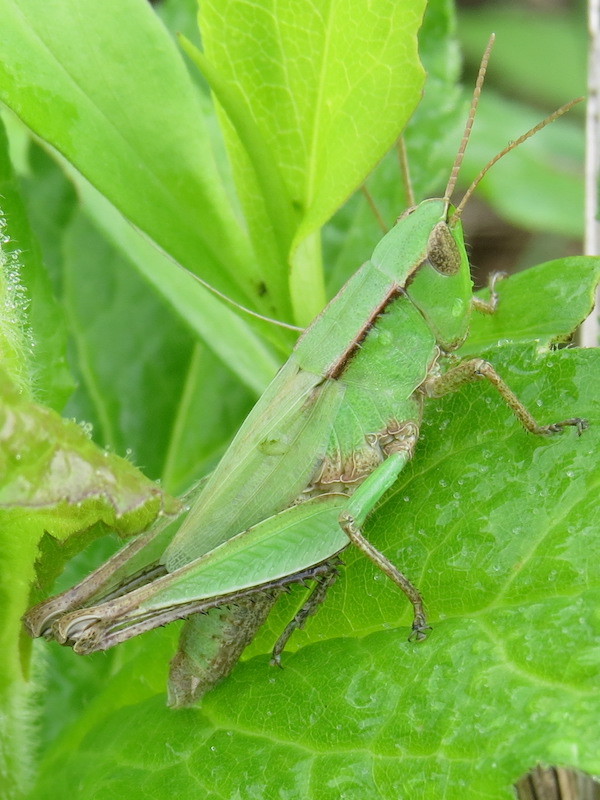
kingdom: Animalia
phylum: Arthropoda
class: Insecta
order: Orthoptera
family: Acrididae
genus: Dichromorpha
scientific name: Dichromorpha viridis
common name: Short-winged green grasshopper
